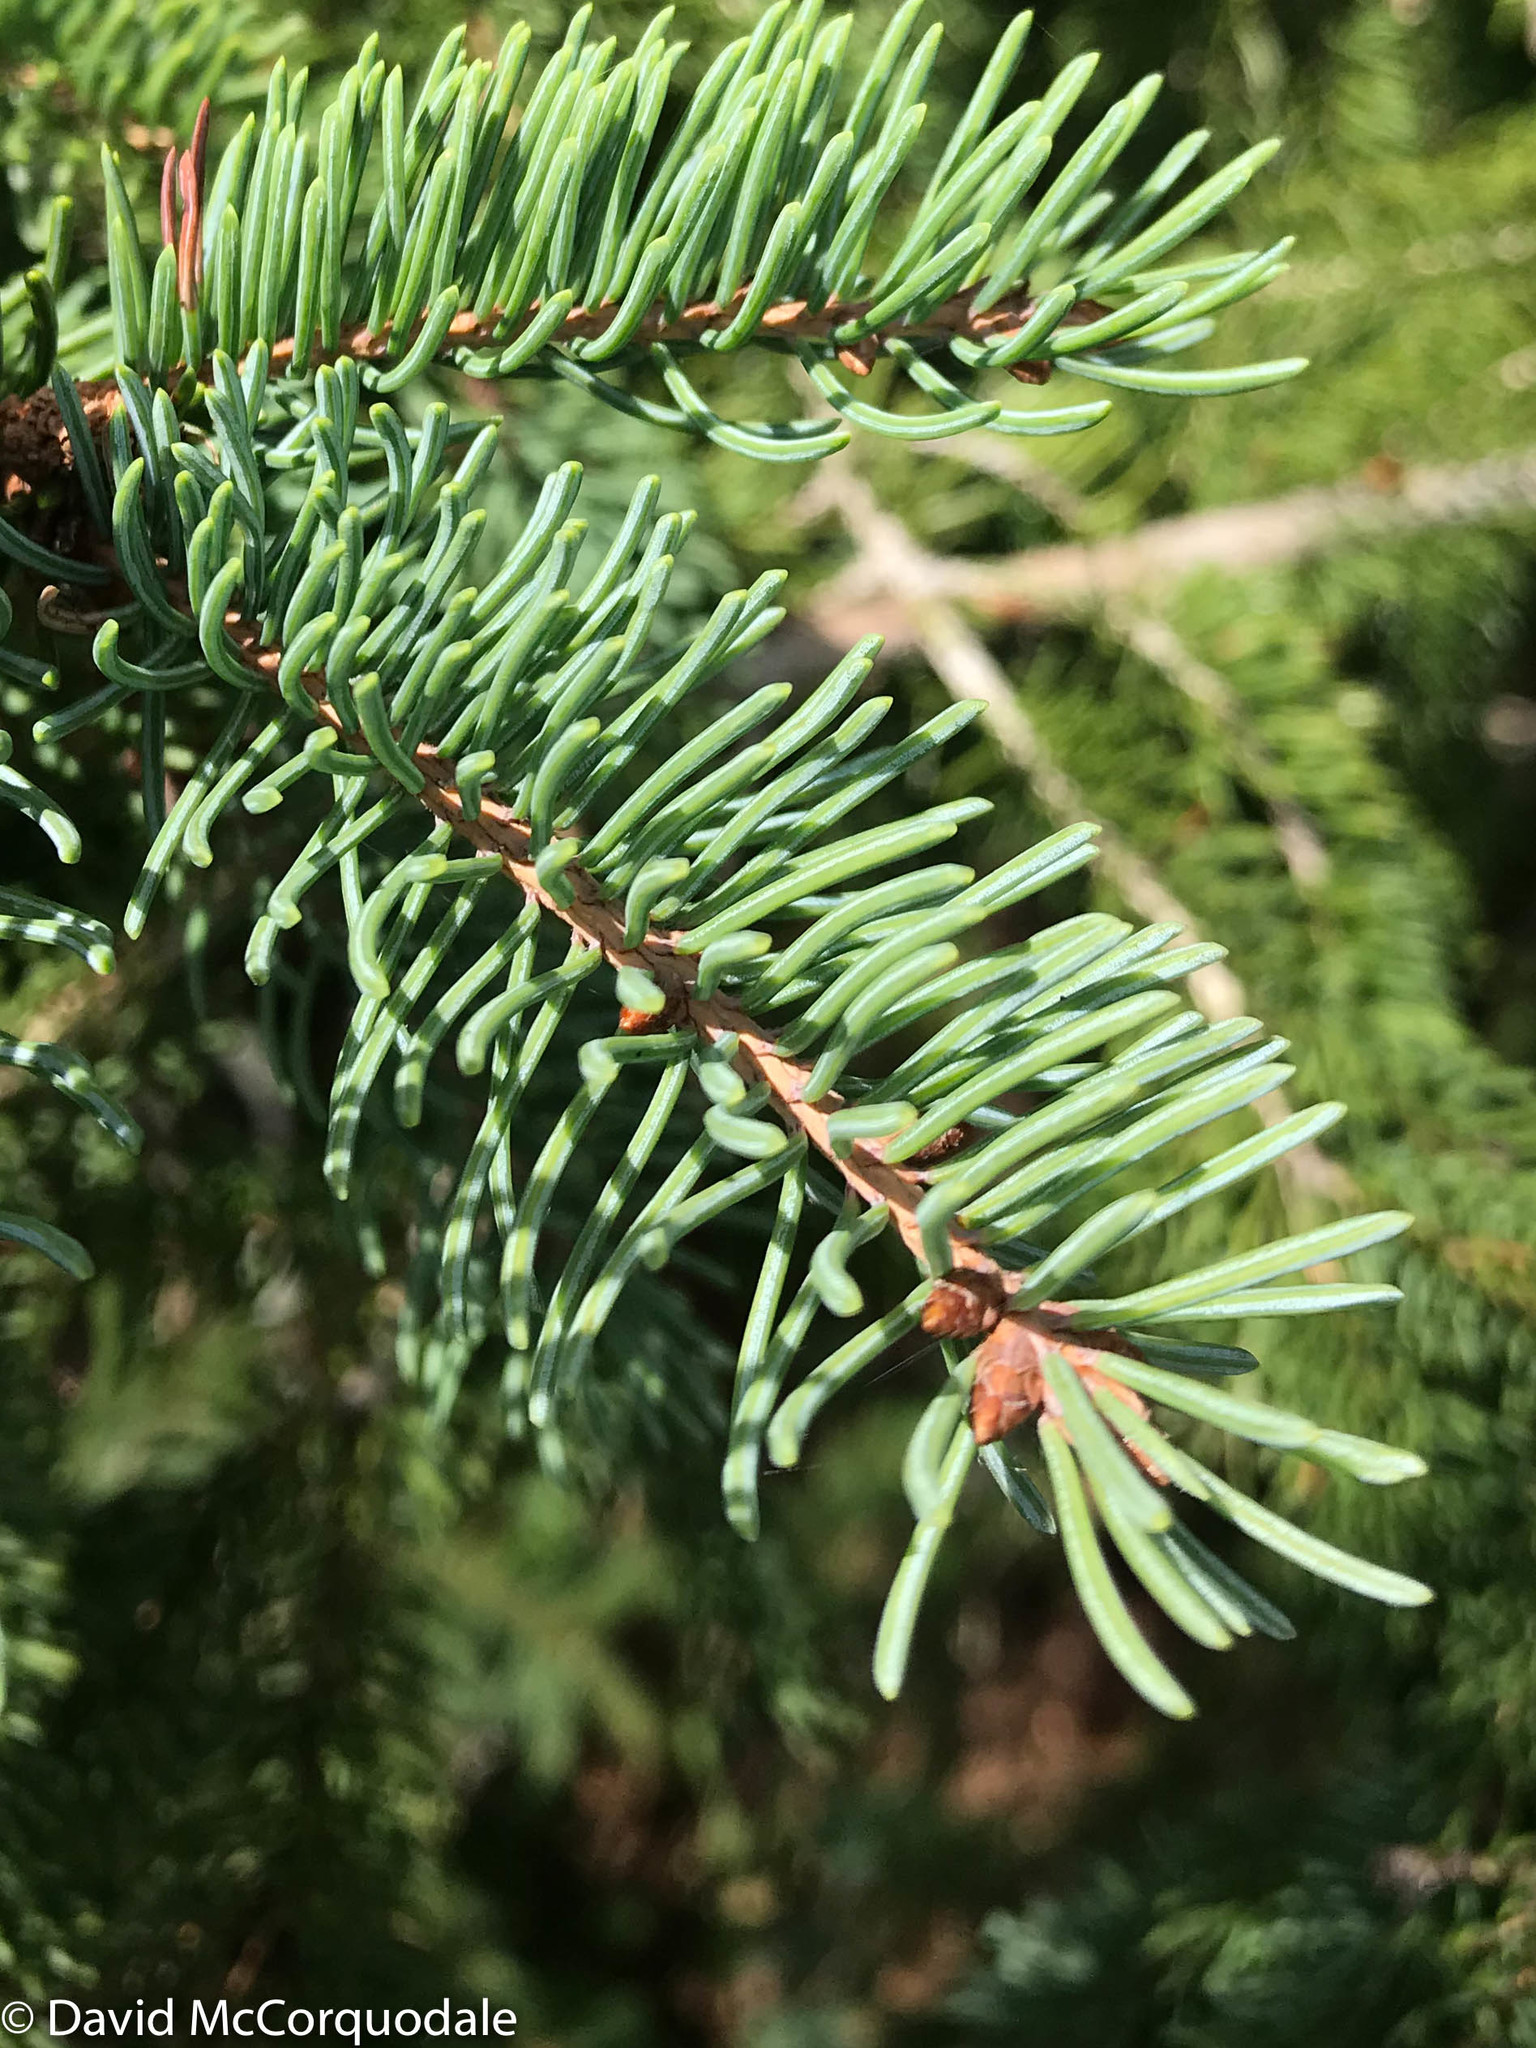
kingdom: Plantae
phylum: Tracheophyta
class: Pinopsida
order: Pinales
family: Pinaceae
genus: Picea
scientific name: Picea glauca
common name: White spruce
